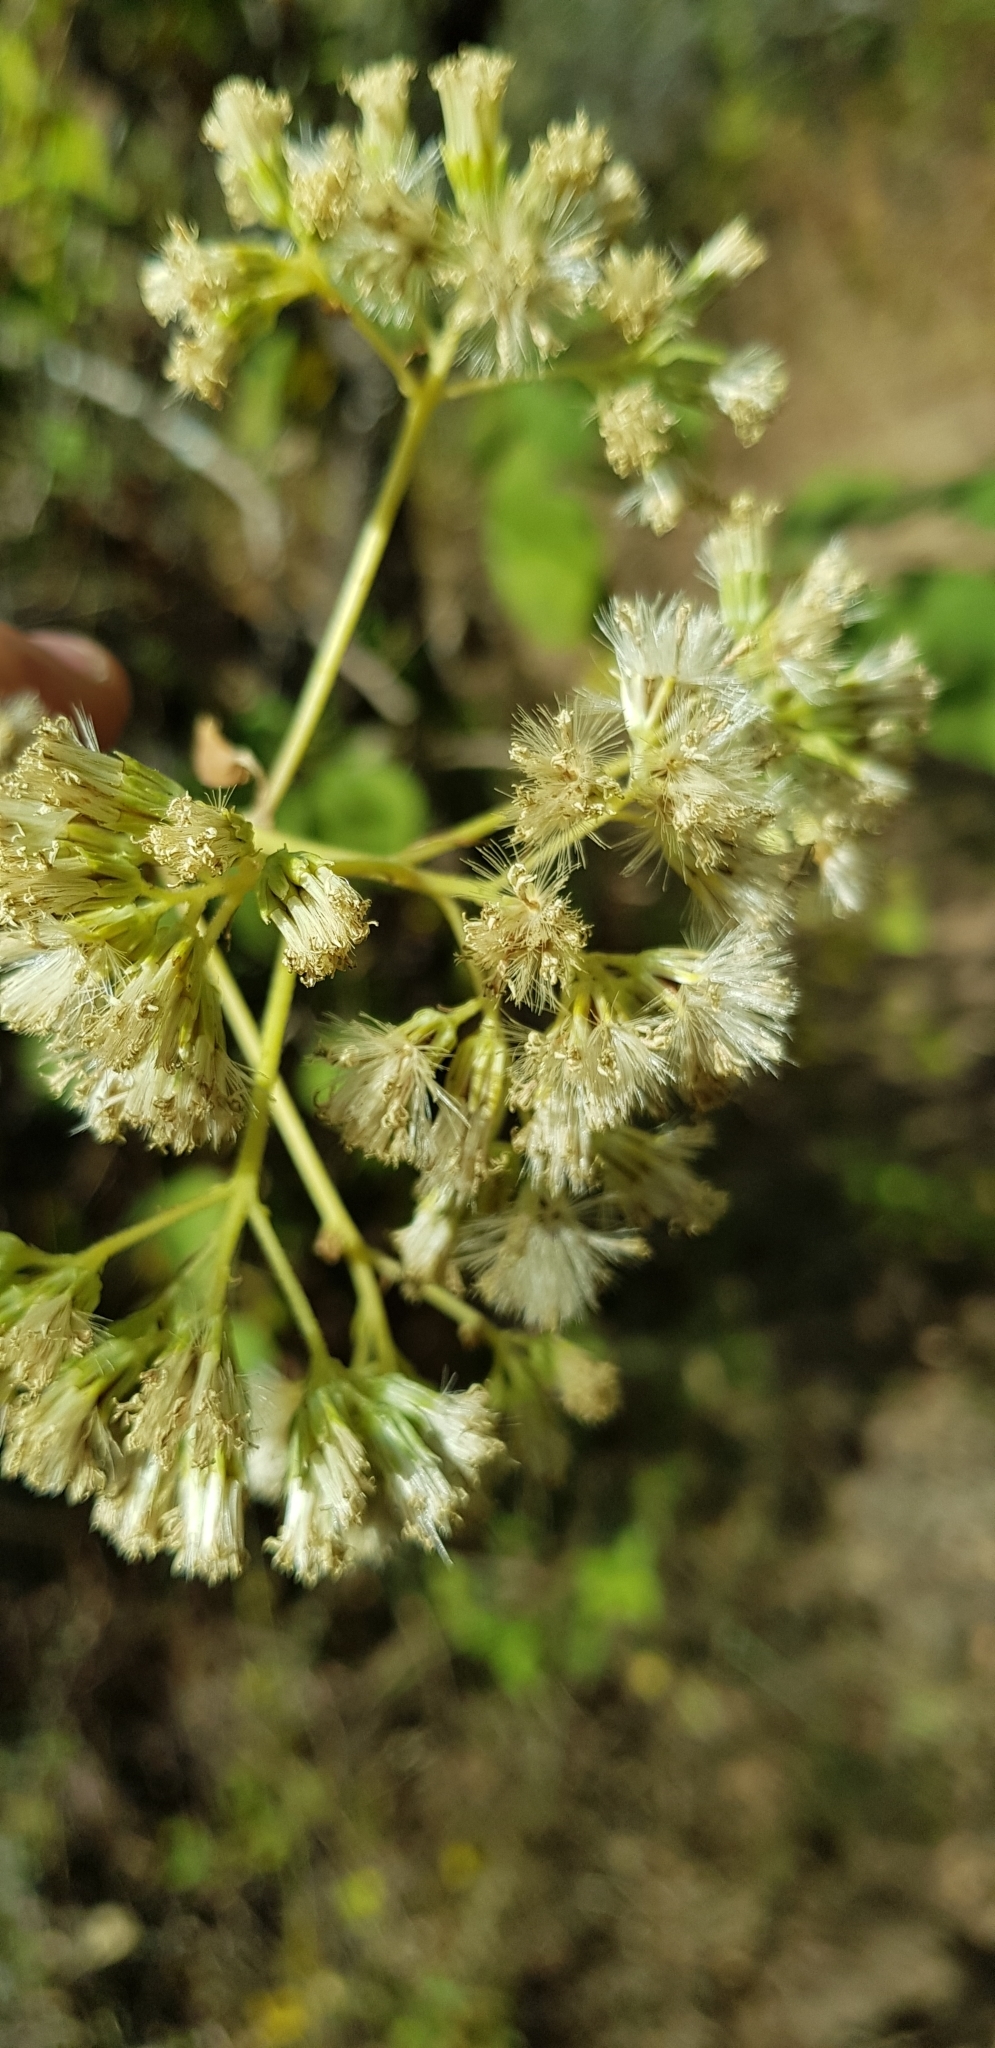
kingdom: Plantae
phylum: Tracheophyta
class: Magnoliopsida
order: Asterales
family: Asteraceae
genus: Digitacalia
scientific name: Digitacalia jatrophoides
